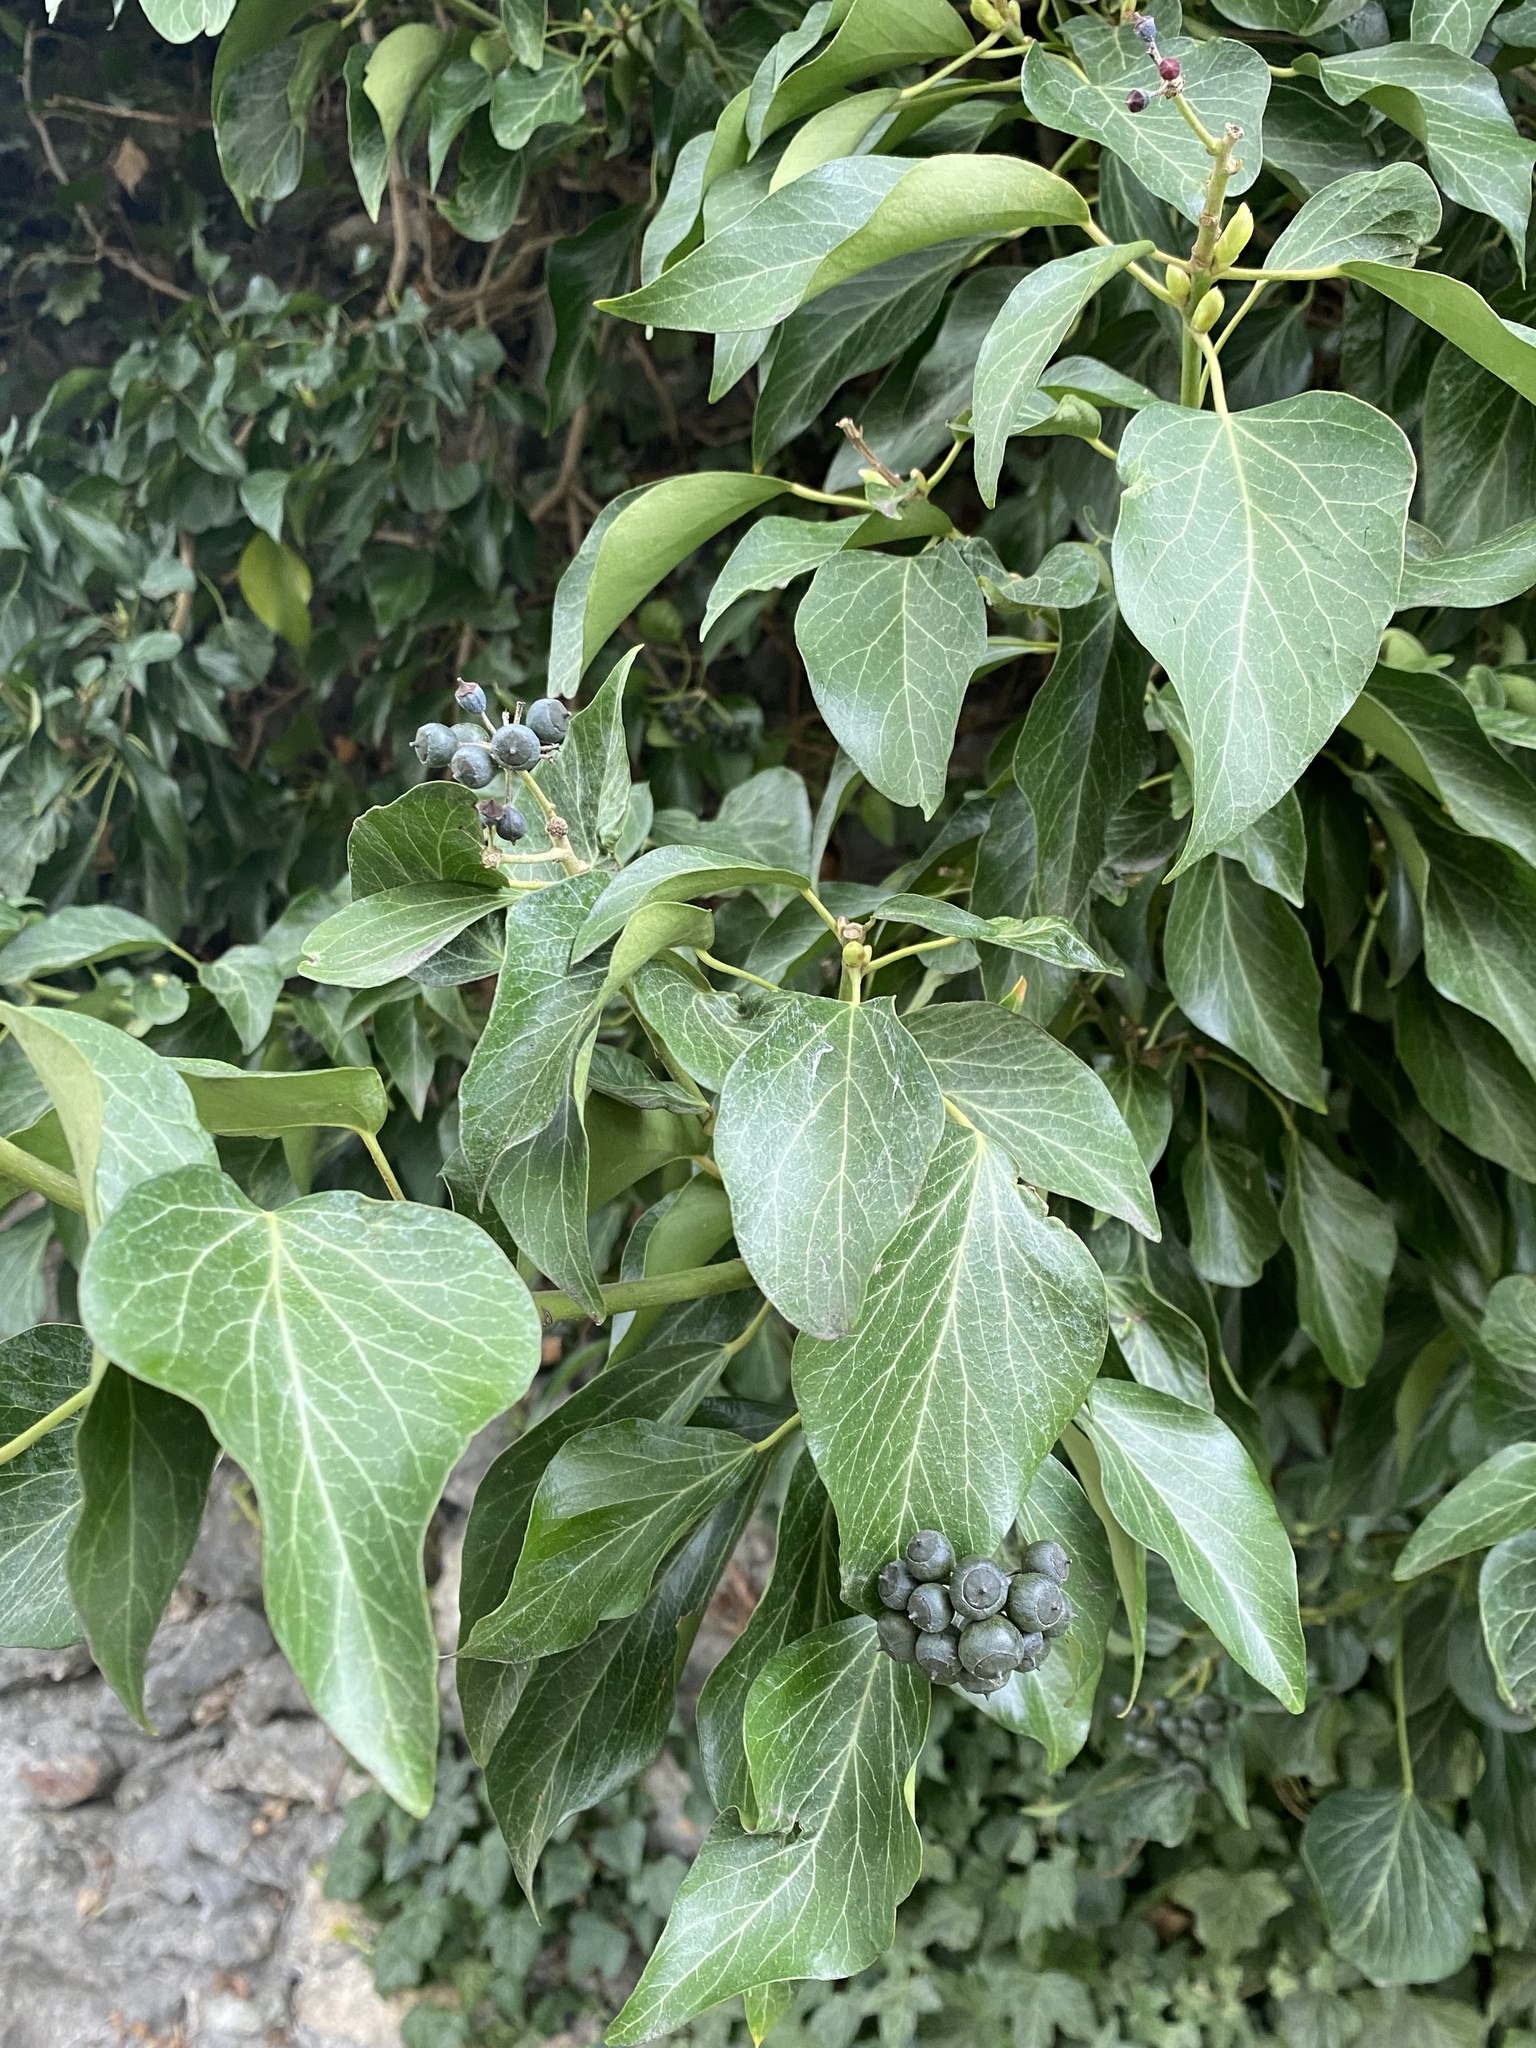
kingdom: Plantae
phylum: Tracheophyta
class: Magnoliopsida
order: Apiales
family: Araliaceae
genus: Hedera
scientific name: Hedera helix
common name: Ivy
